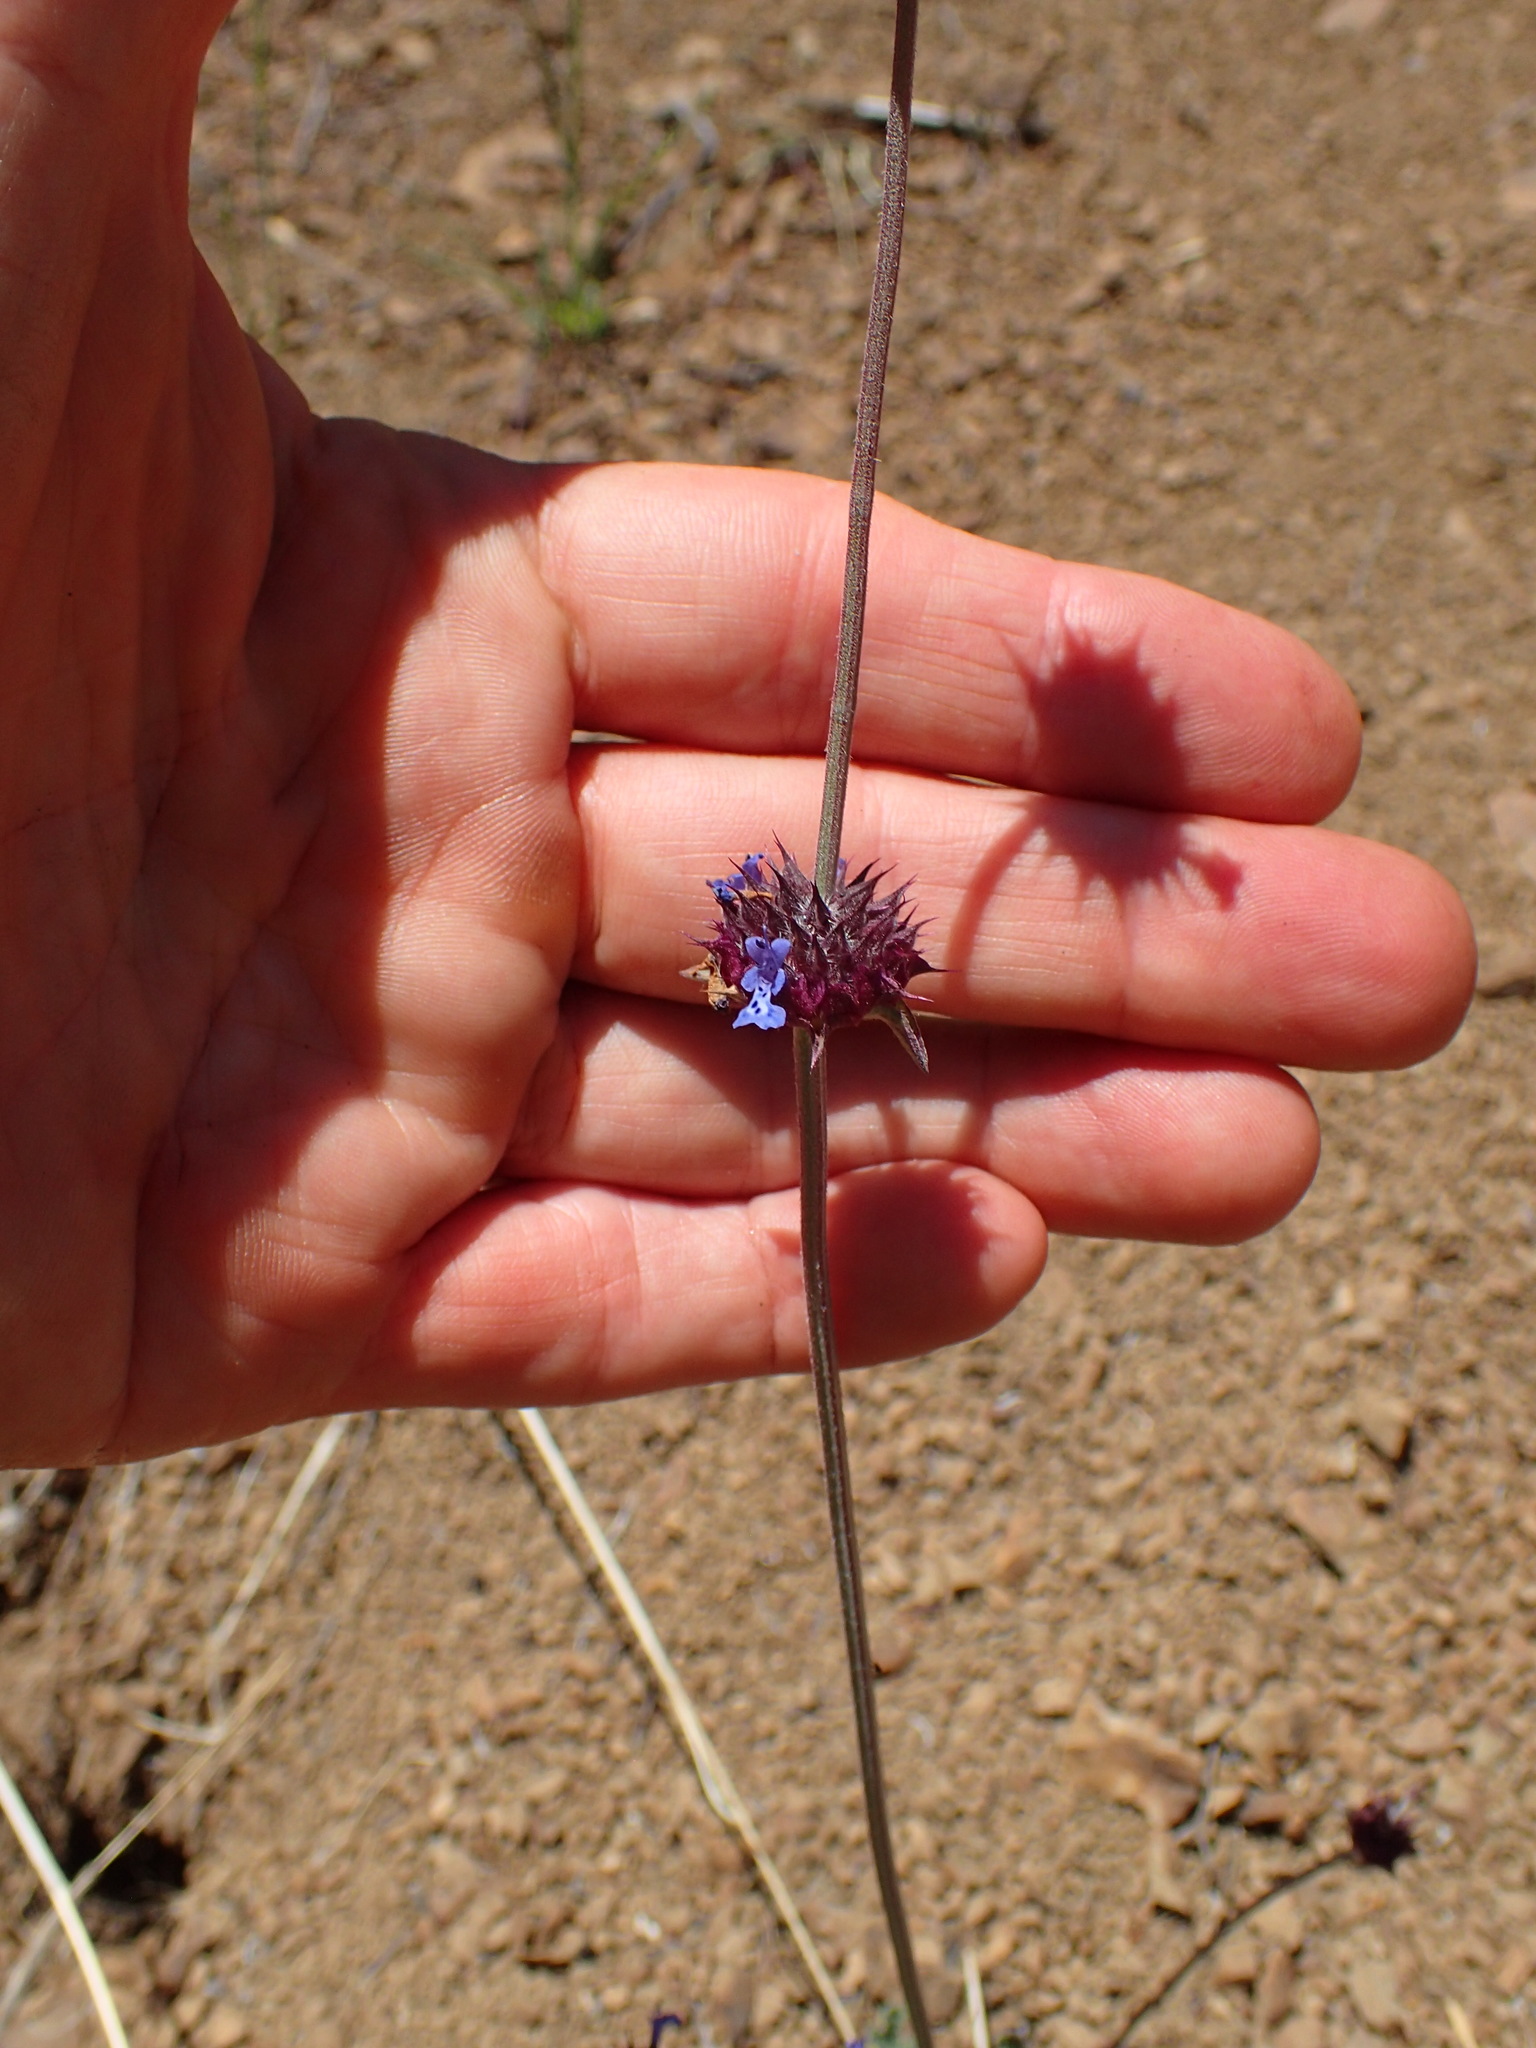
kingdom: Plantae
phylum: Tracheophyta
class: Magnoliopsida
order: Lamiales
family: Lamiaceae
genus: Salvia
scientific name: Salvia columbariae
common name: Chia
